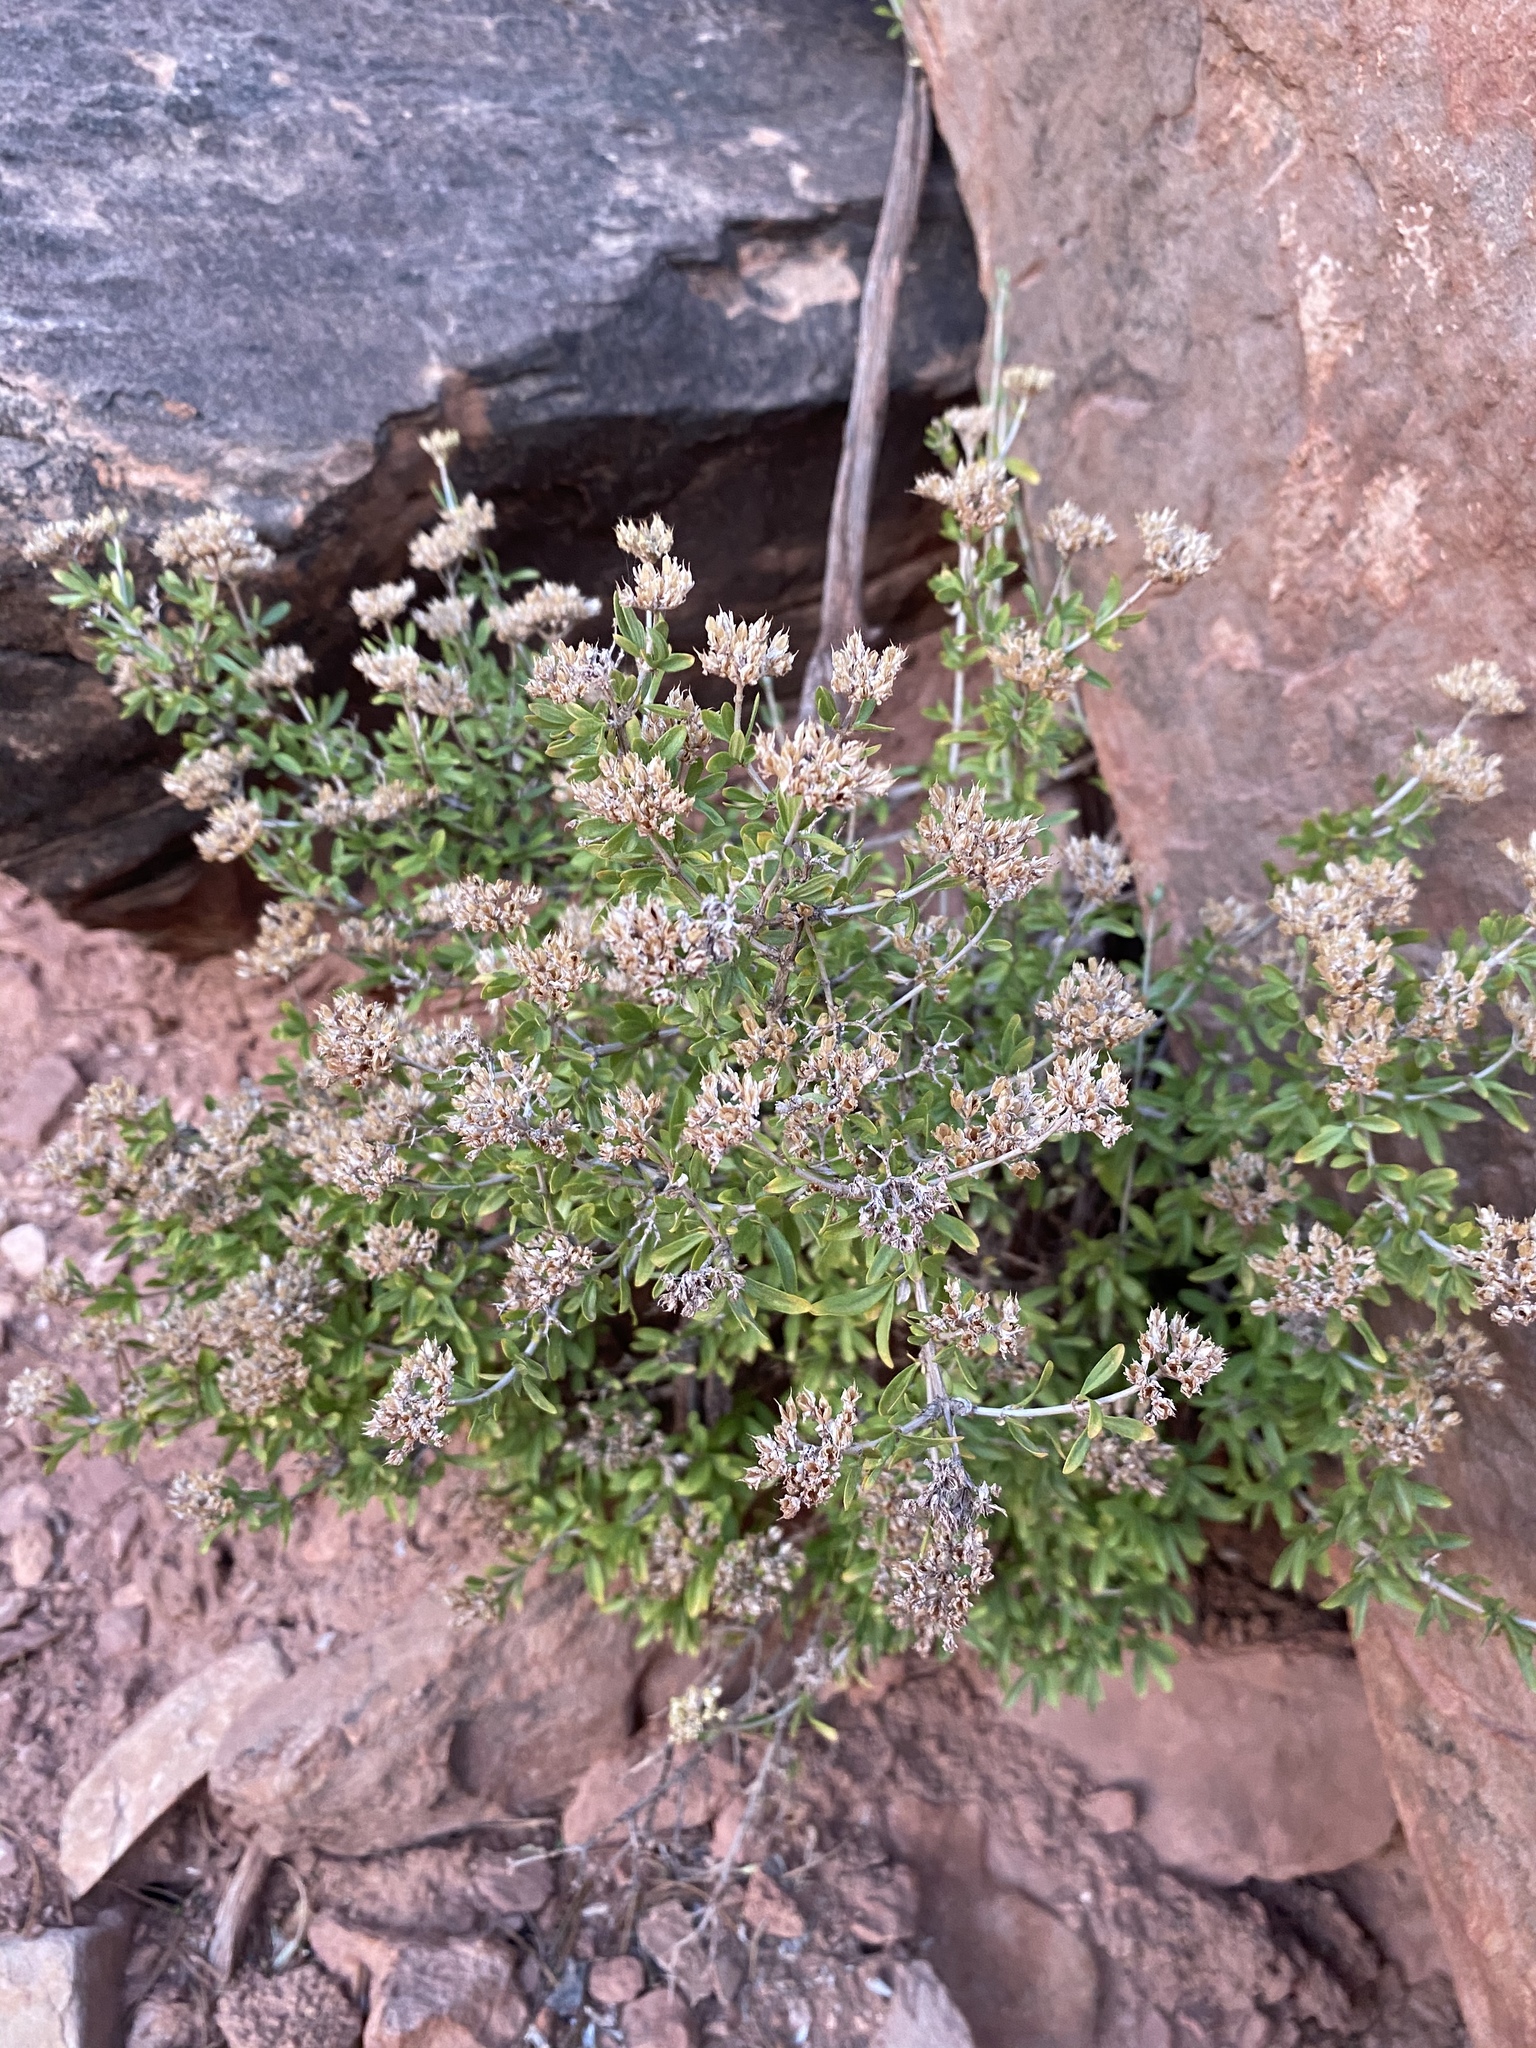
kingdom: Plantae
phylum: Tracheophyta
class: Magnoliopsida
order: Cornales
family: Hydrangeaceae
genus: Fendlerella
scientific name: Fendlerella utahensis
